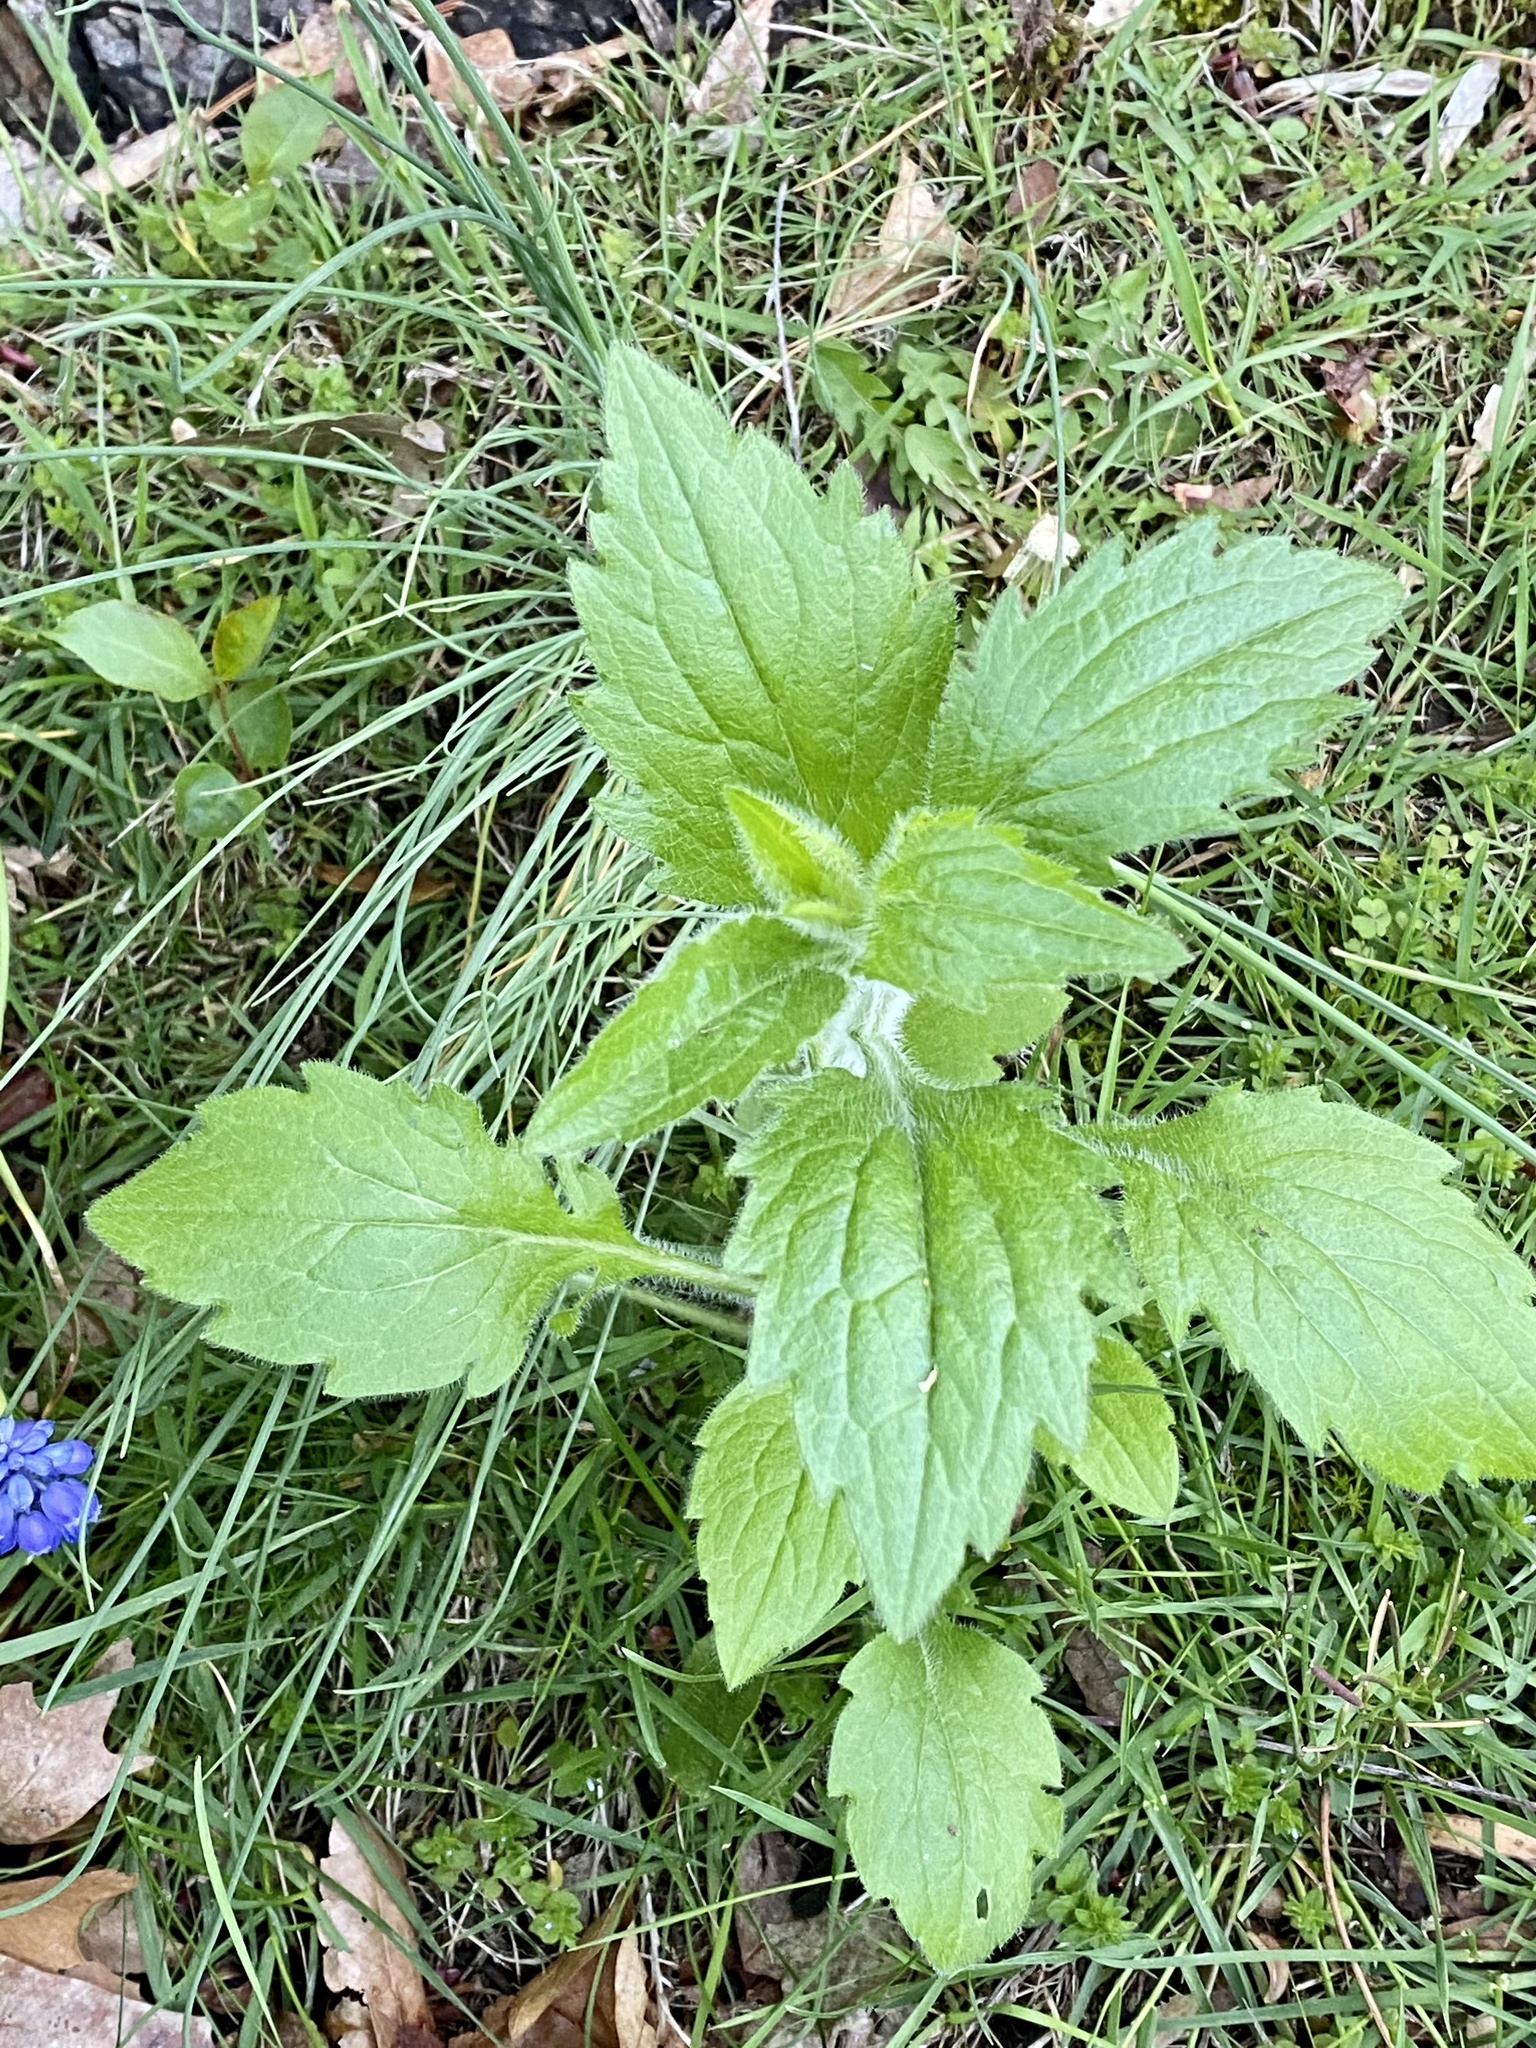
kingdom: Plantae
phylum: Tracheophyta
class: Magnoliopsida
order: Asterales
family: Asteraceae
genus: Erigeron
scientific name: Erigeron annuus
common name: Tall fleabane
